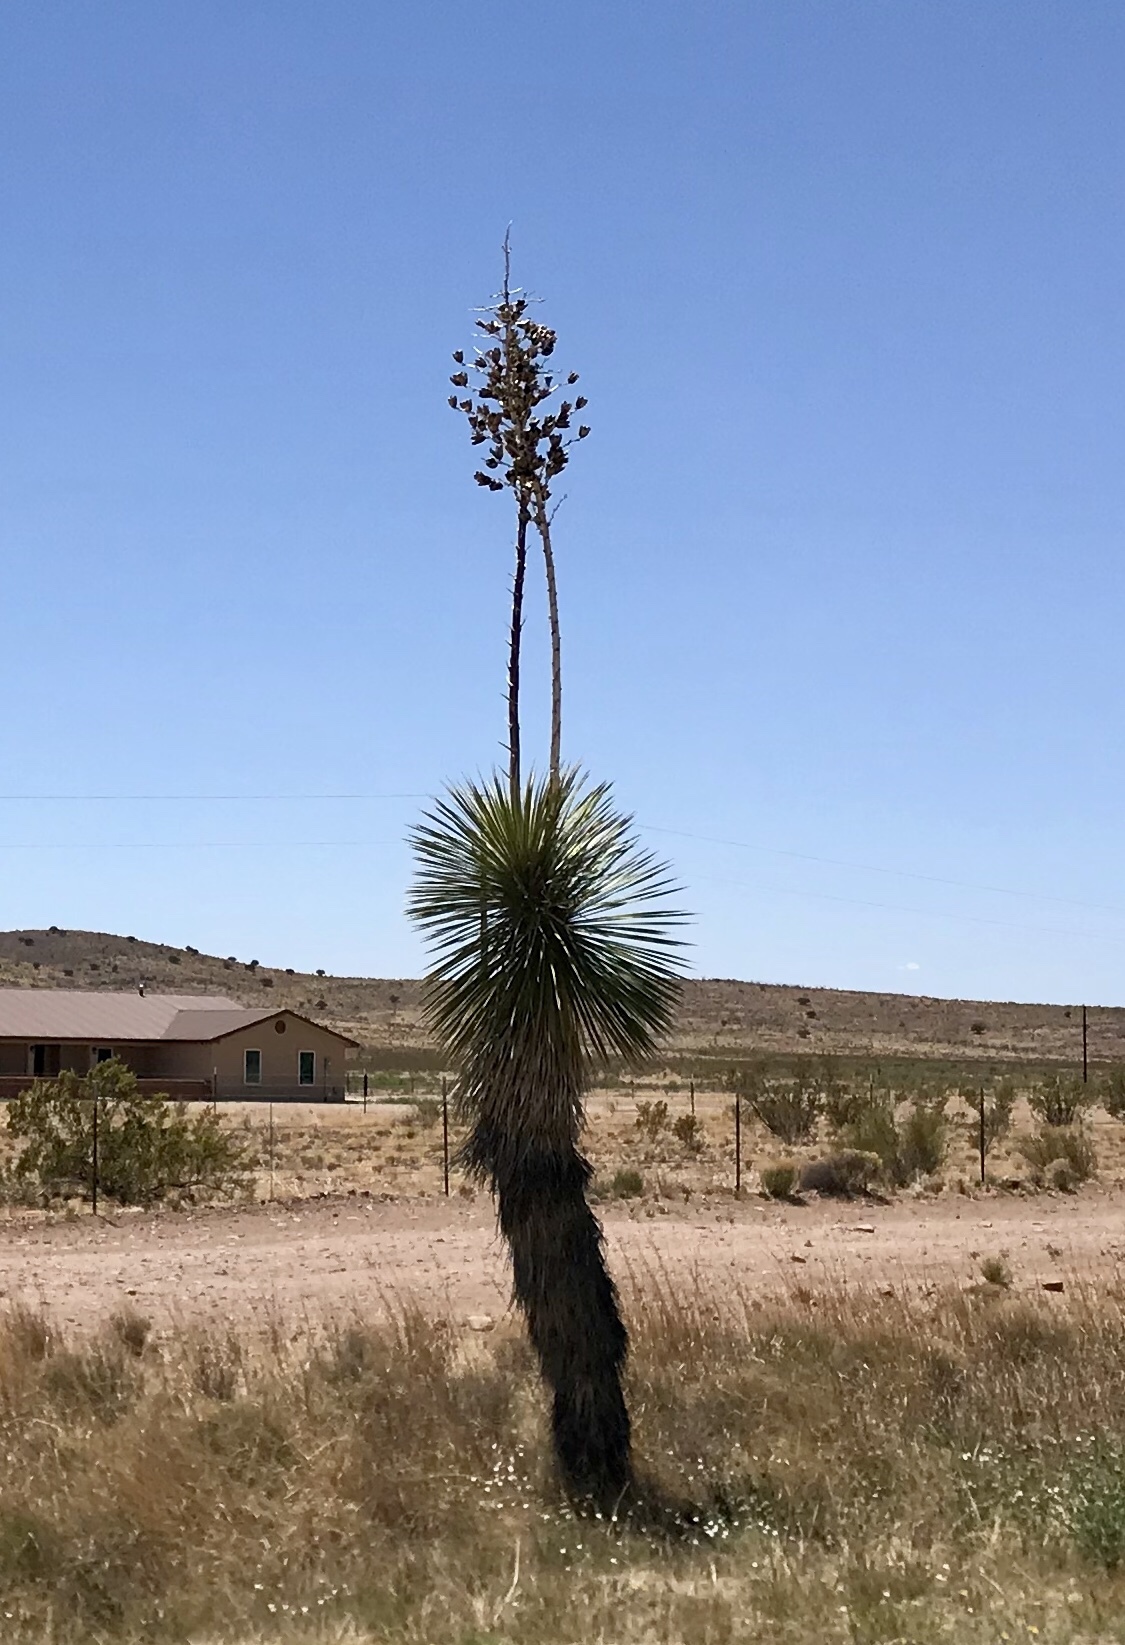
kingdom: Plantae
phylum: Tracheophyta
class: Liliopsida
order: Asparagales
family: Asparagaceae
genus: Yucca
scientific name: Yucca elata
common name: Palmella
